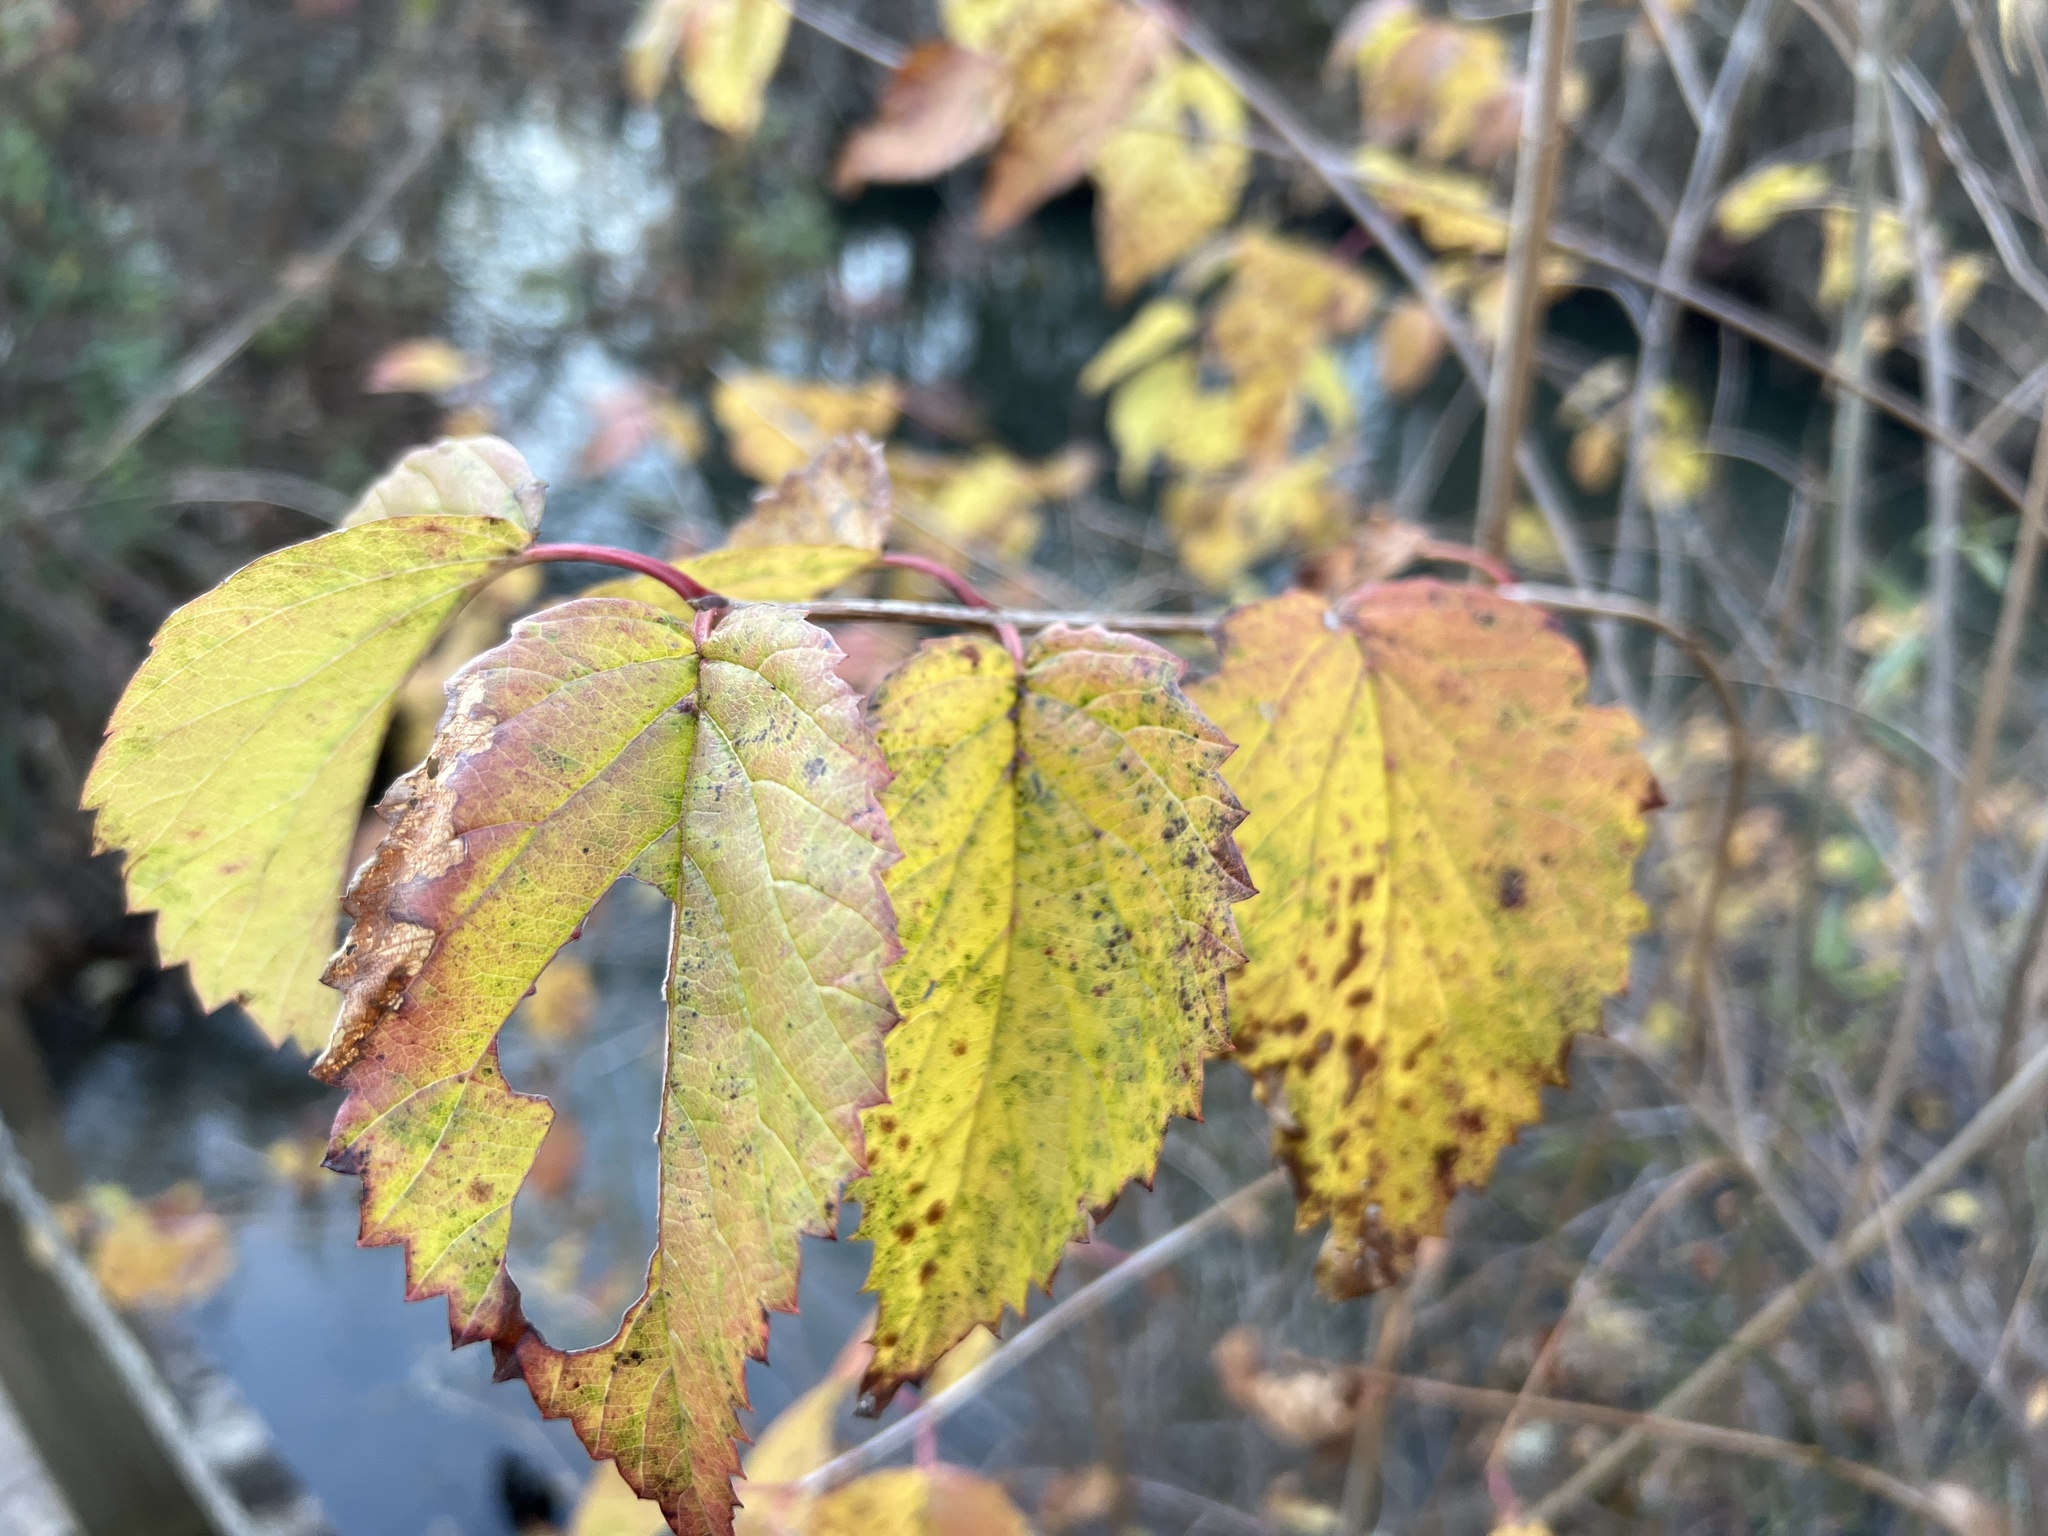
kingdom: Plantae
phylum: Tracheophyta
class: Magnoliopsida
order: Dipsacales
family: Viburnaceae
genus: Viburnum
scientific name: Viburnum recognitum
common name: Northern arrow-wood
